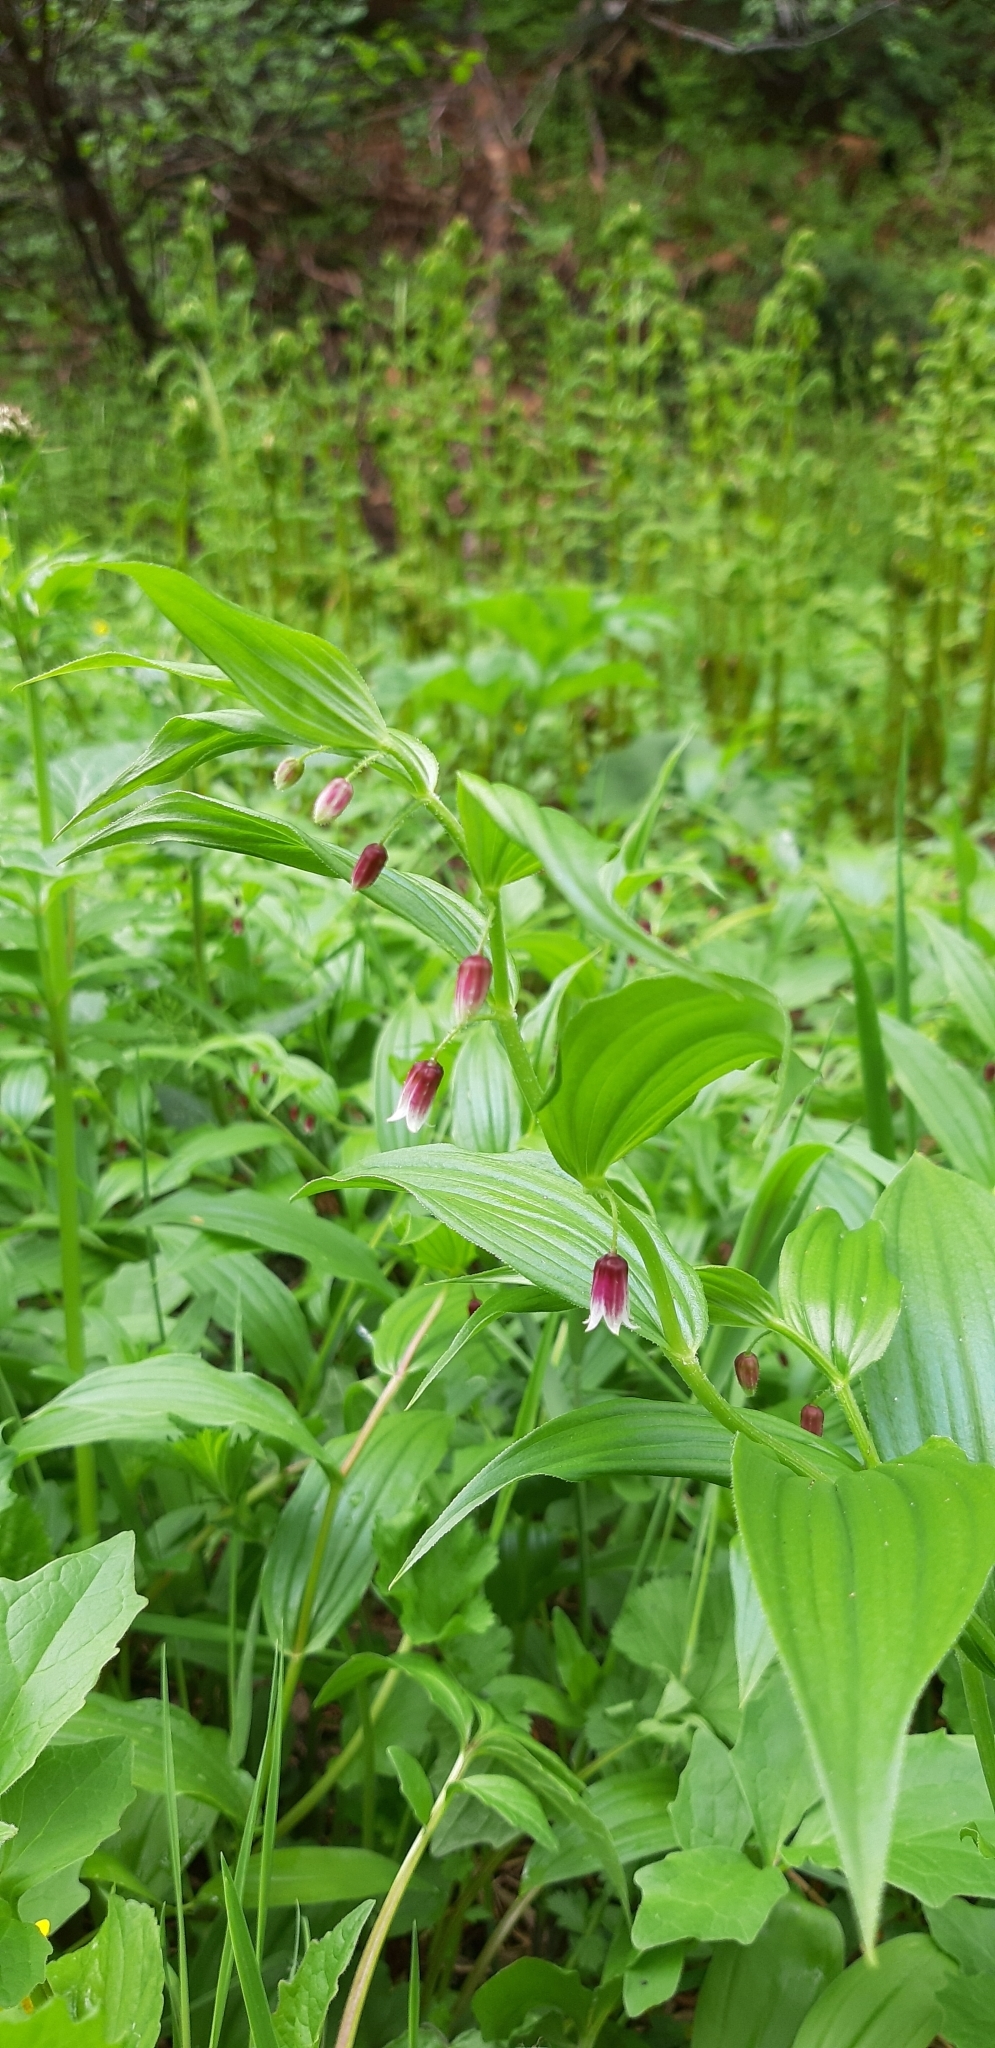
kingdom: Plantae
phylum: Tracheophyta
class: Liliopsida
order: Liliales
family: Liliaceae
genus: Streptopus
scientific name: Streptopus lanceolatus
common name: Rose mandarin
